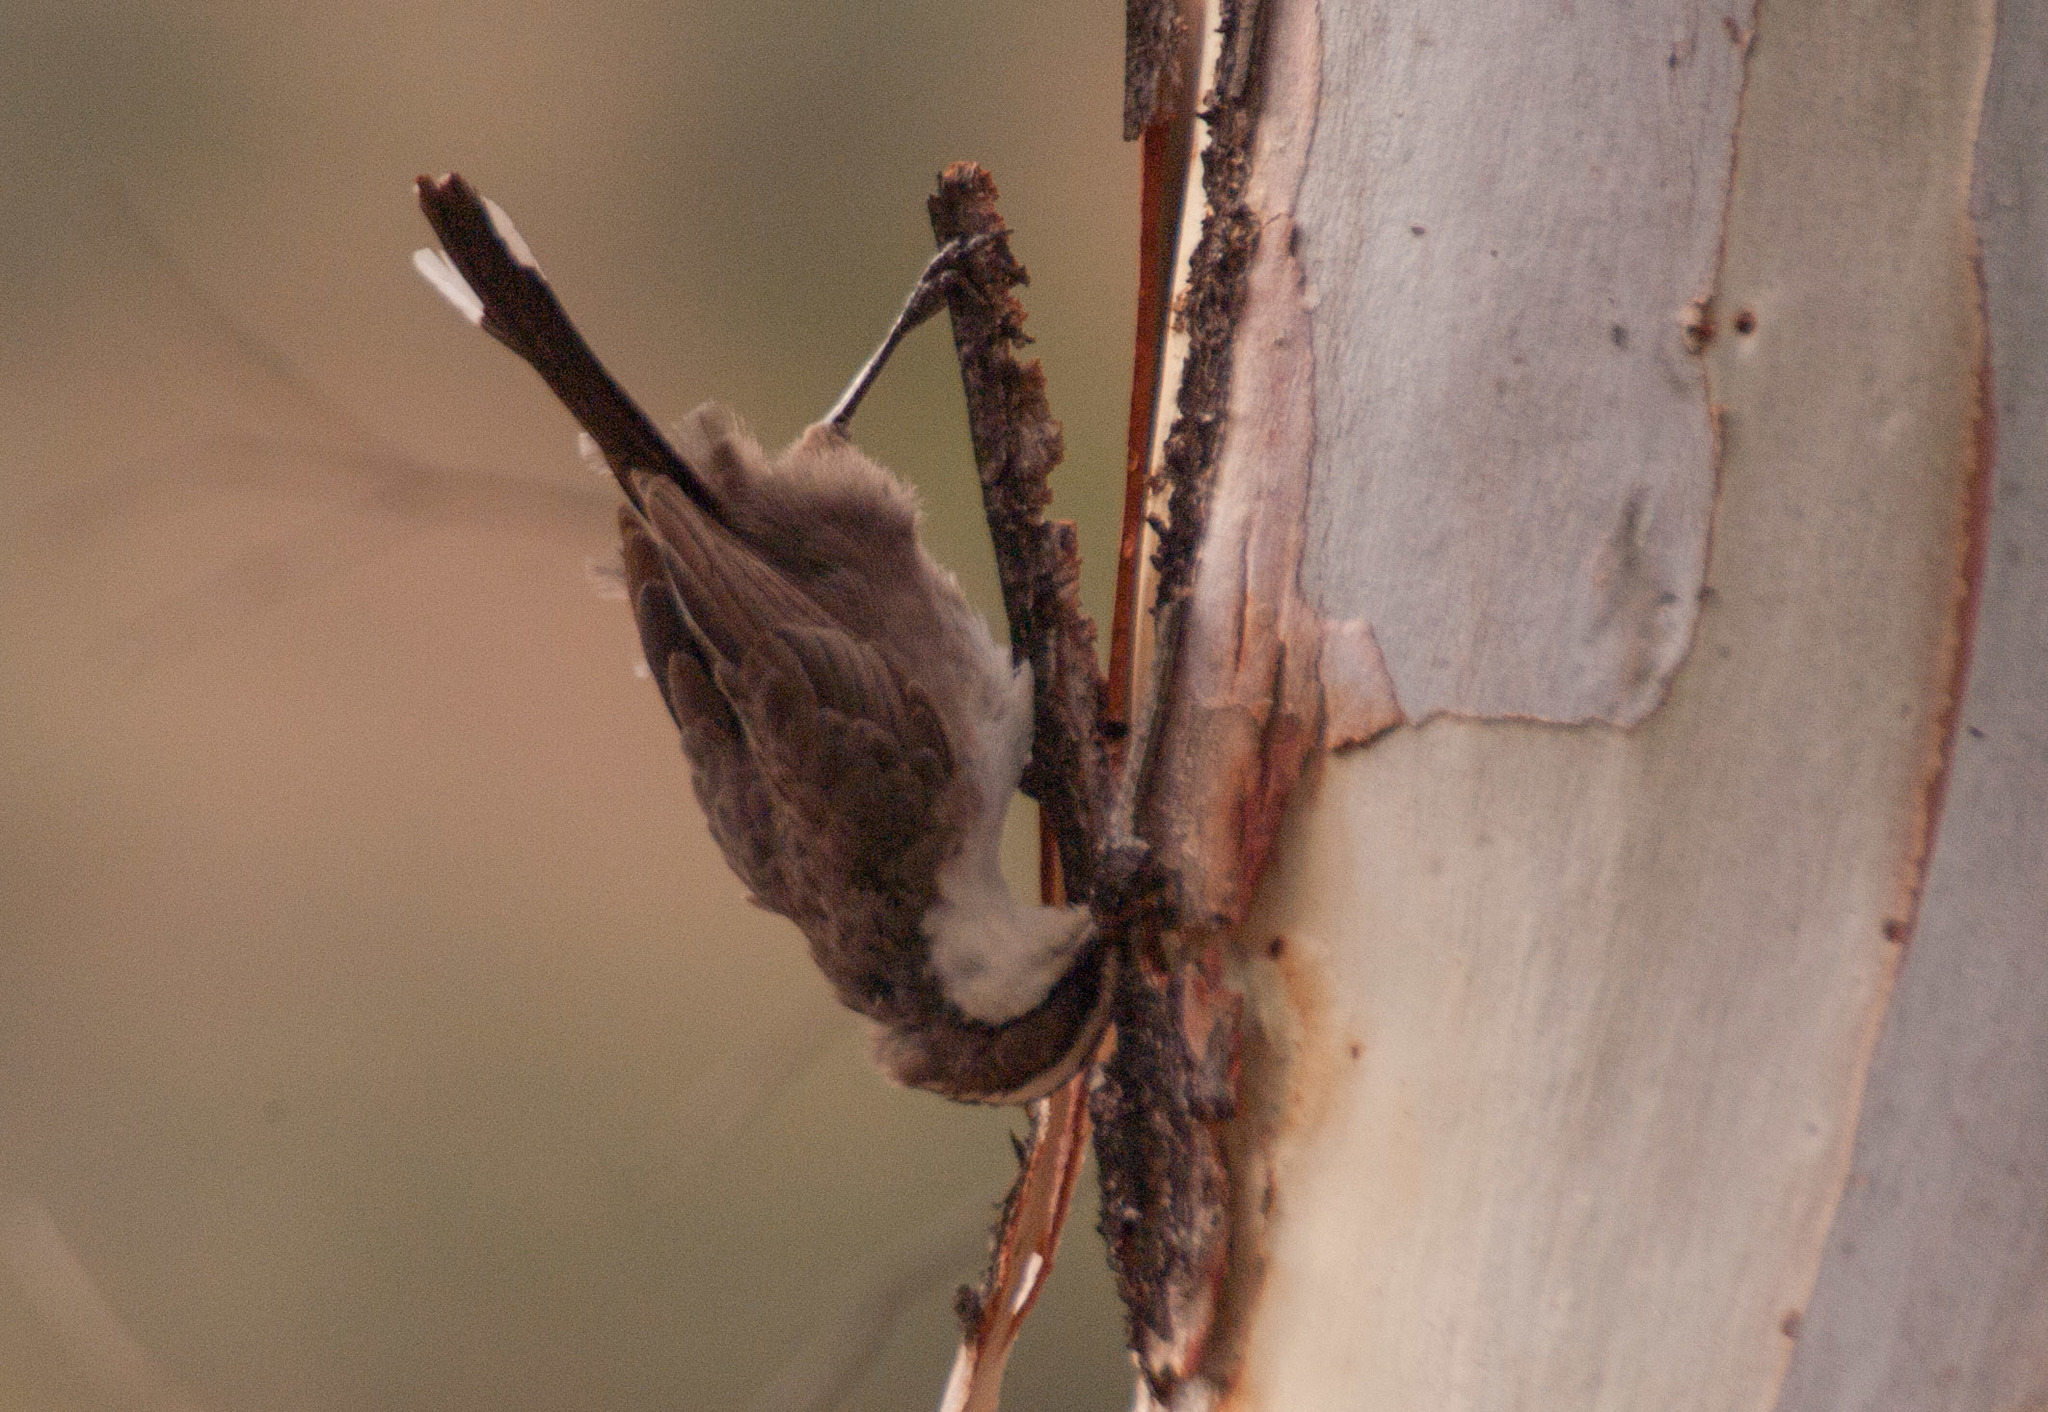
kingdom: Animalia
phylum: Chordata
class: Aves
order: Passeriformes
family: Pomatostomidae
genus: Pomatostomus
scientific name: Pomatostomus superciliosus
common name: White-browed babbler
